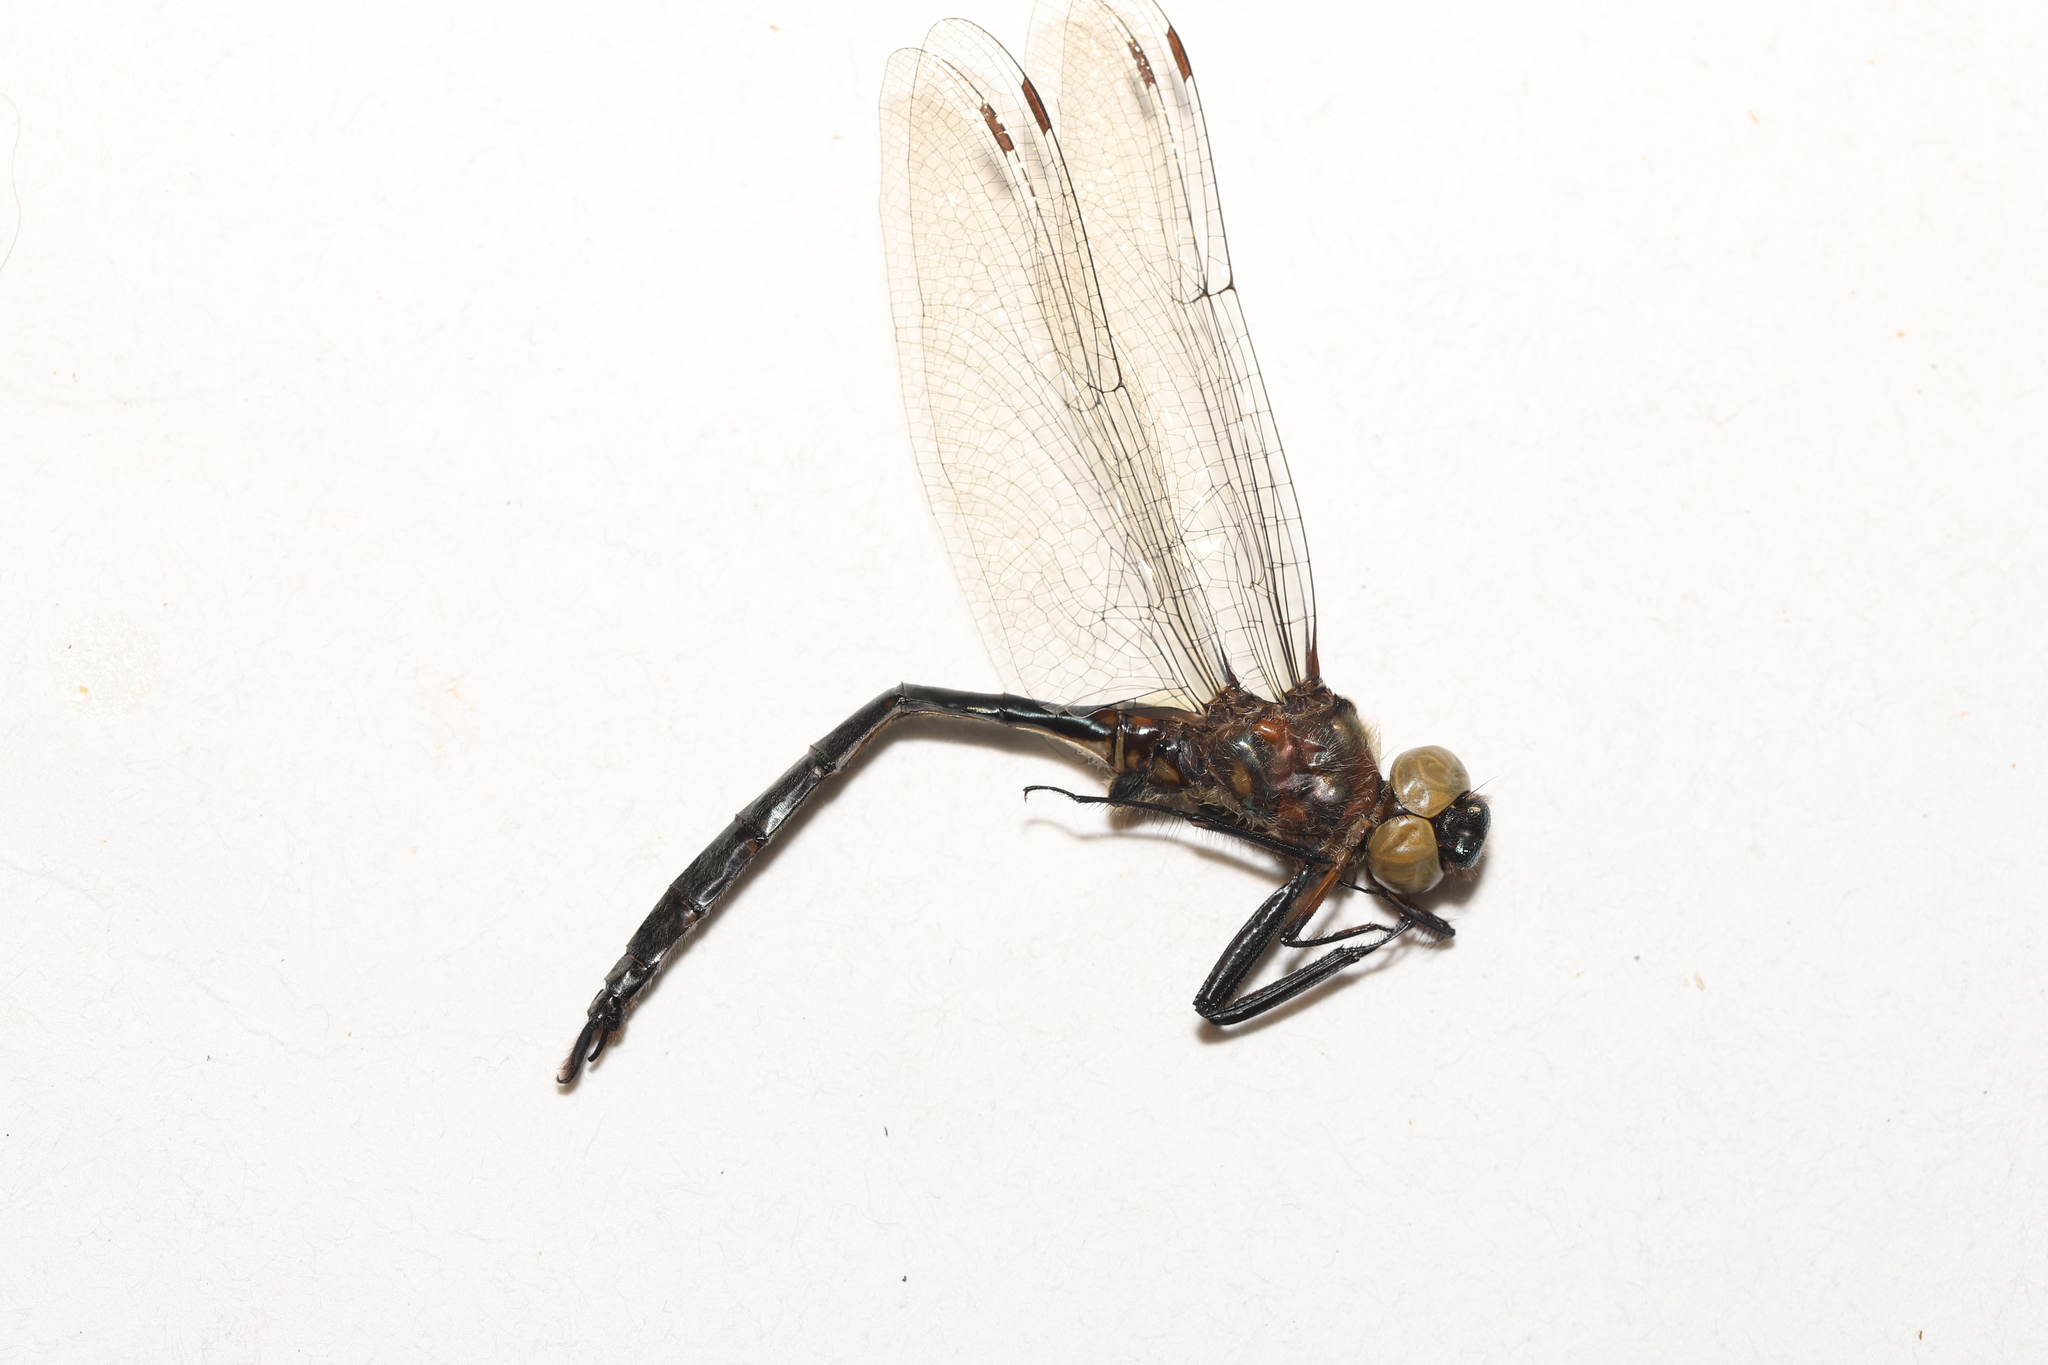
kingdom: Animalia
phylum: Arthropoda
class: Insecta
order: Odonata
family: Corduliidae
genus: Somatochlora
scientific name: Somatochlora williamsoni
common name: Williamson's emerald
